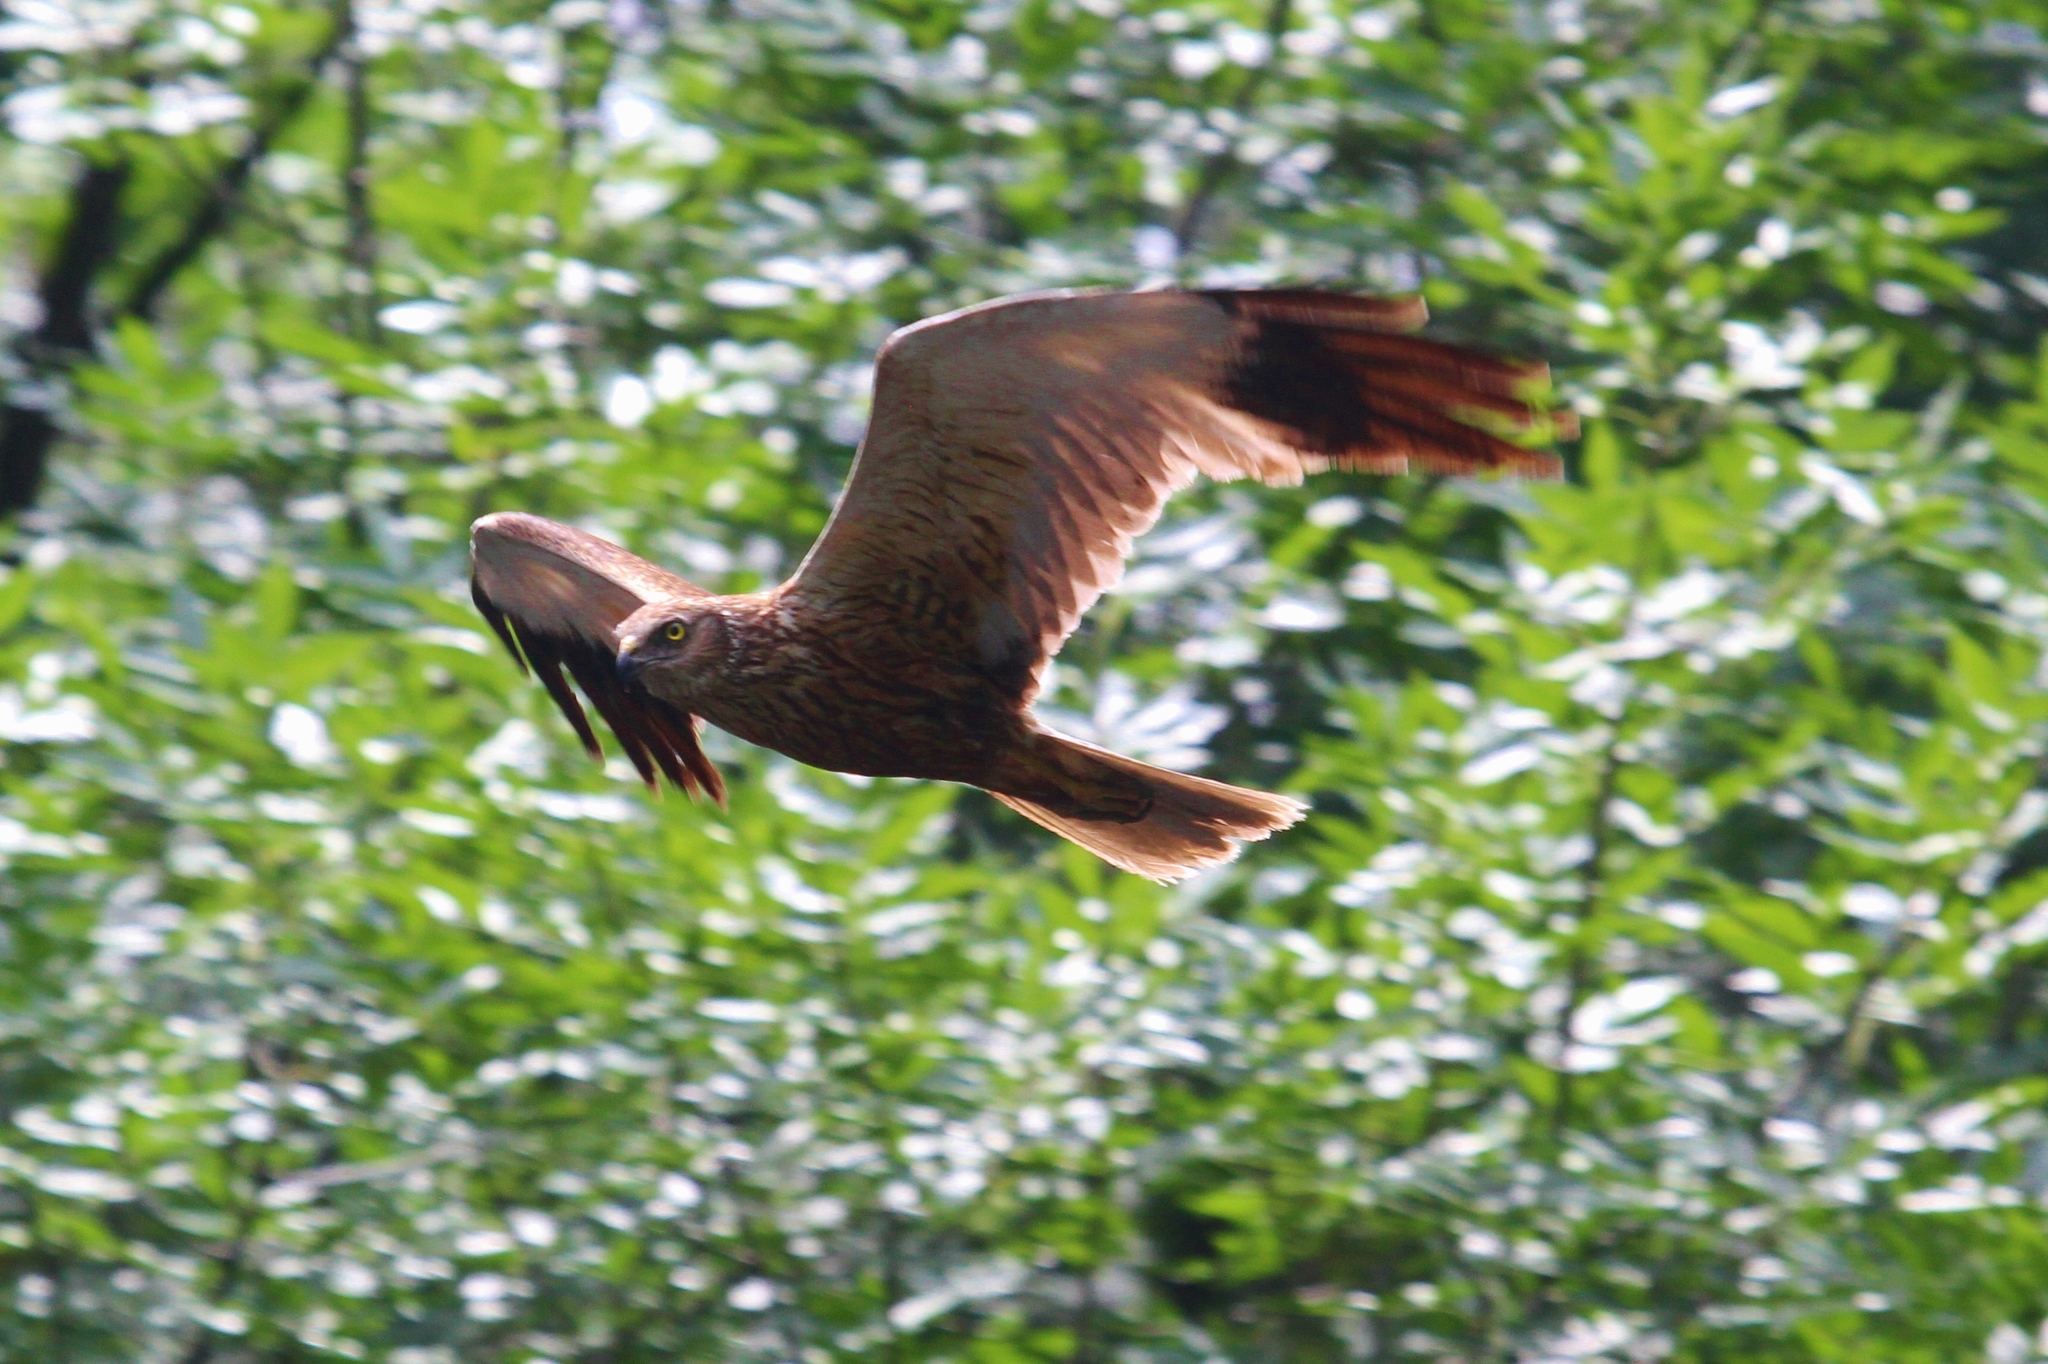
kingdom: Animalia
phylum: Chordata
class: Aves
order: Accipitriformes
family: Accipitridae
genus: Circus
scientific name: Circus aeruginosus
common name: Western marsh harrier
